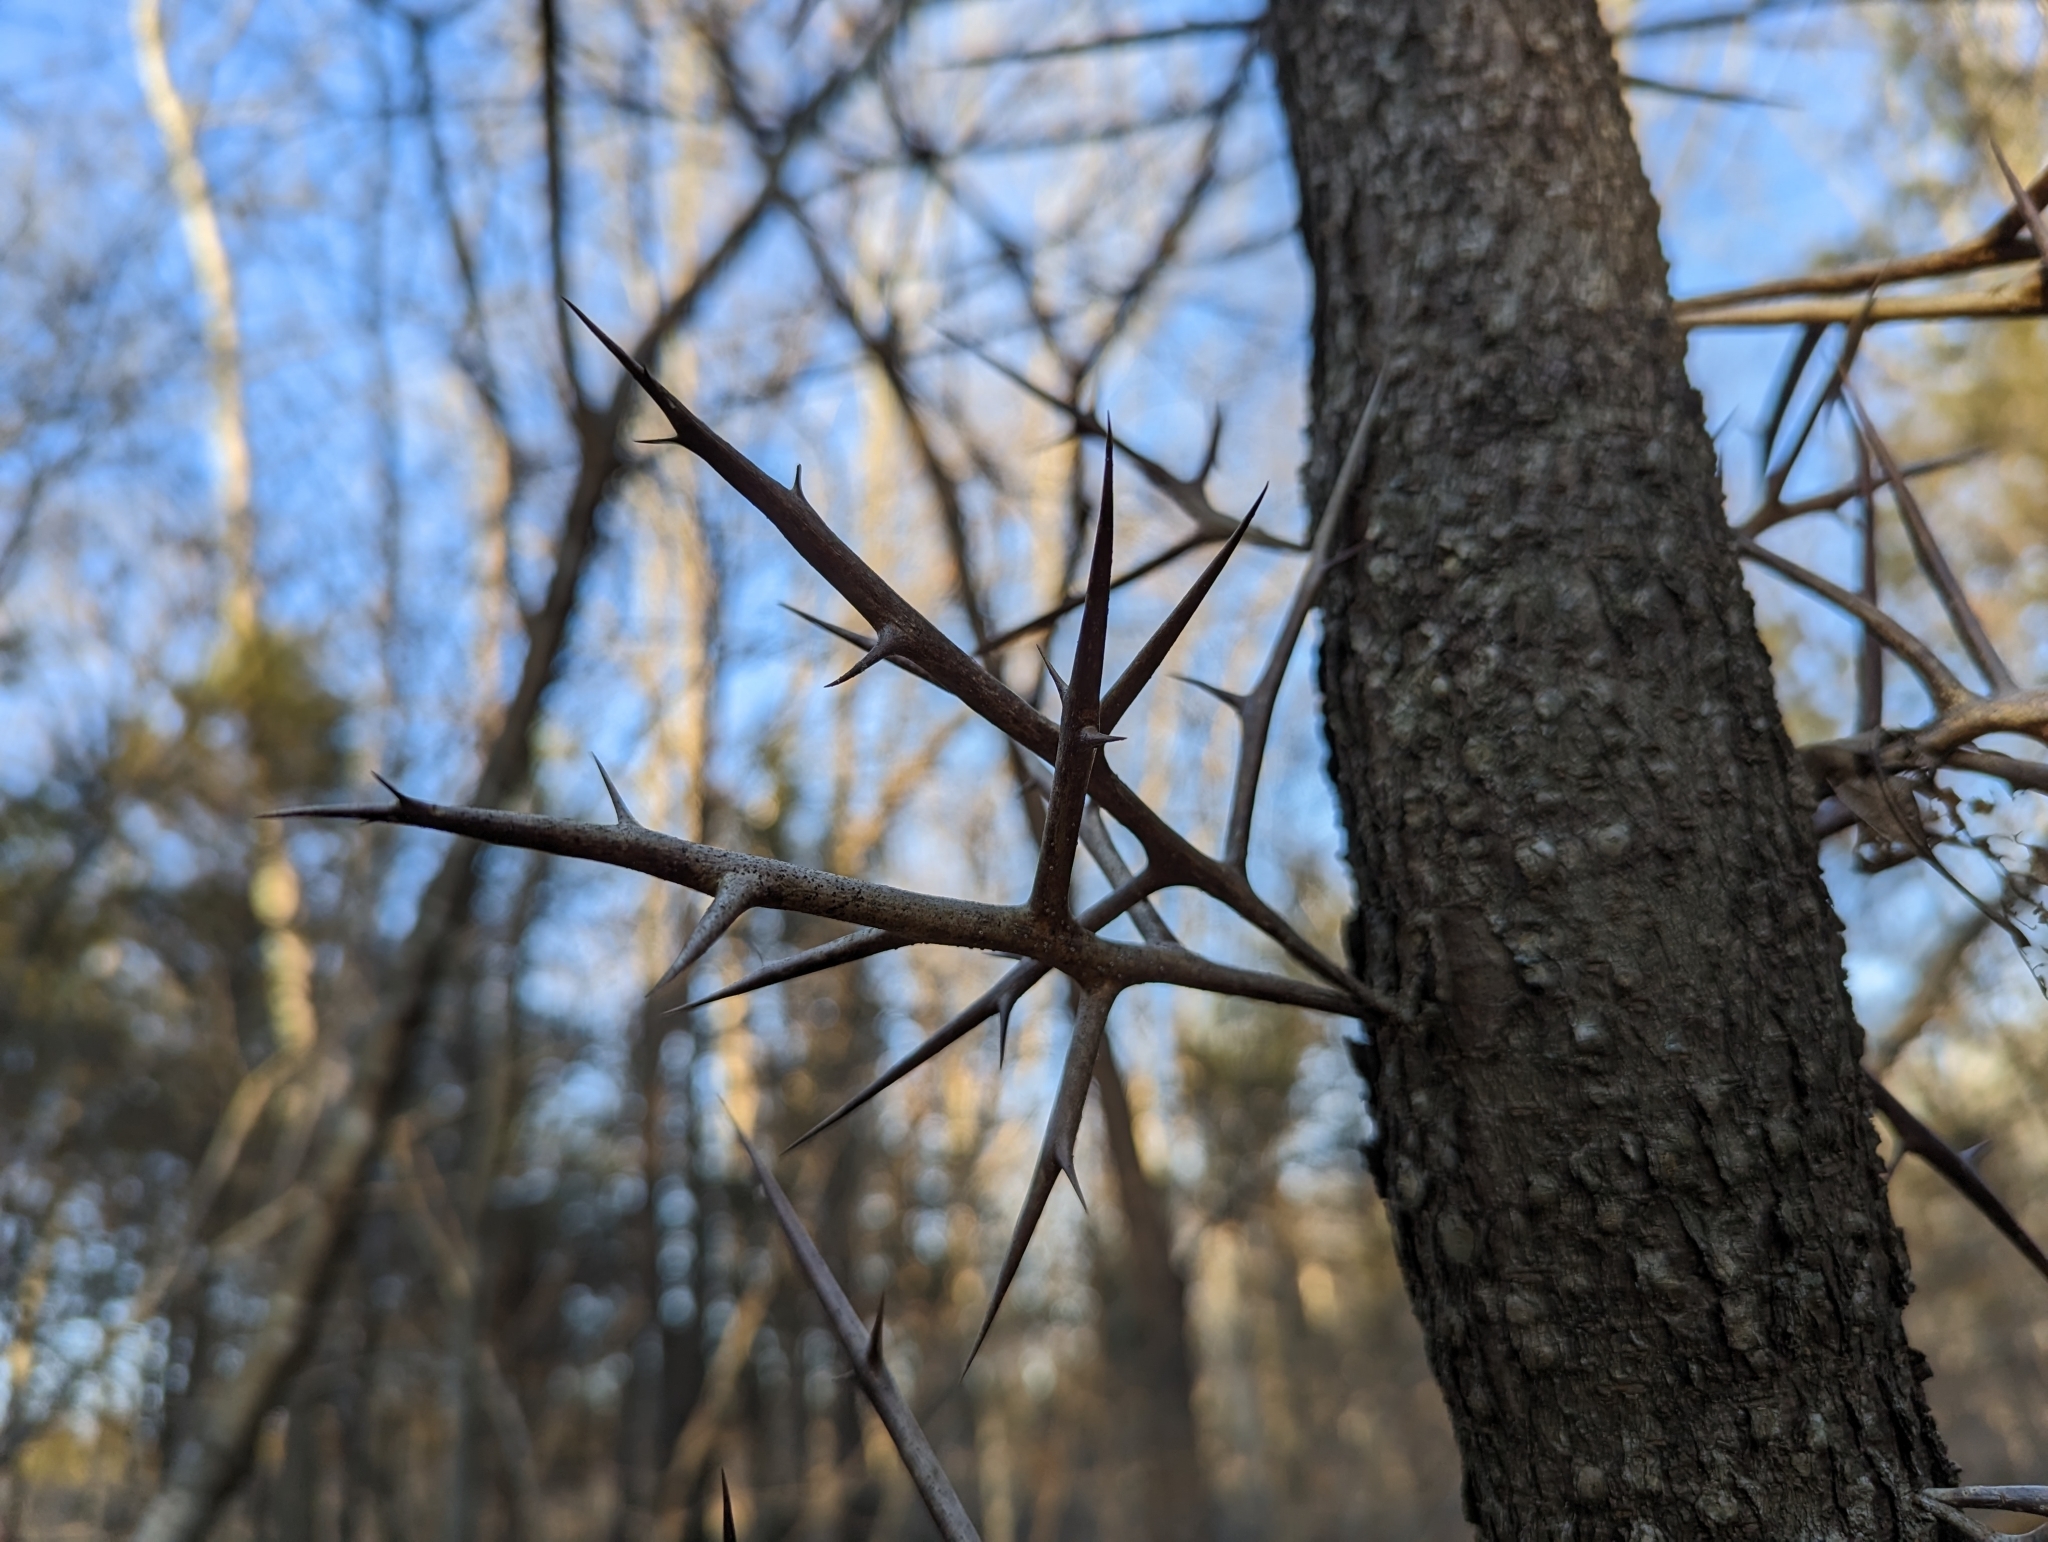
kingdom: Plantae
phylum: Tracheophyta
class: Magnoliopsida
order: Fabales
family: Fabaceae
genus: Gleditsia
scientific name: Gleditsia triacanthos
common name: Common honeylocust
